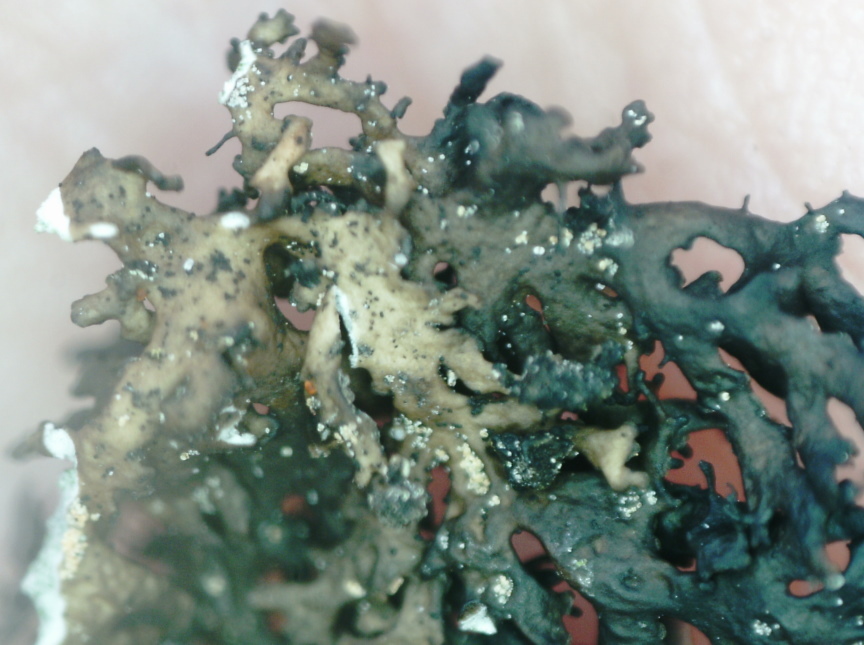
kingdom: Fungi
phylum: Ascomycota
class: Lecanoromycetes
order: Lecanorales
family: Parmeliaceae
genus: Melanelia
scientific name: Melanelia commixta
